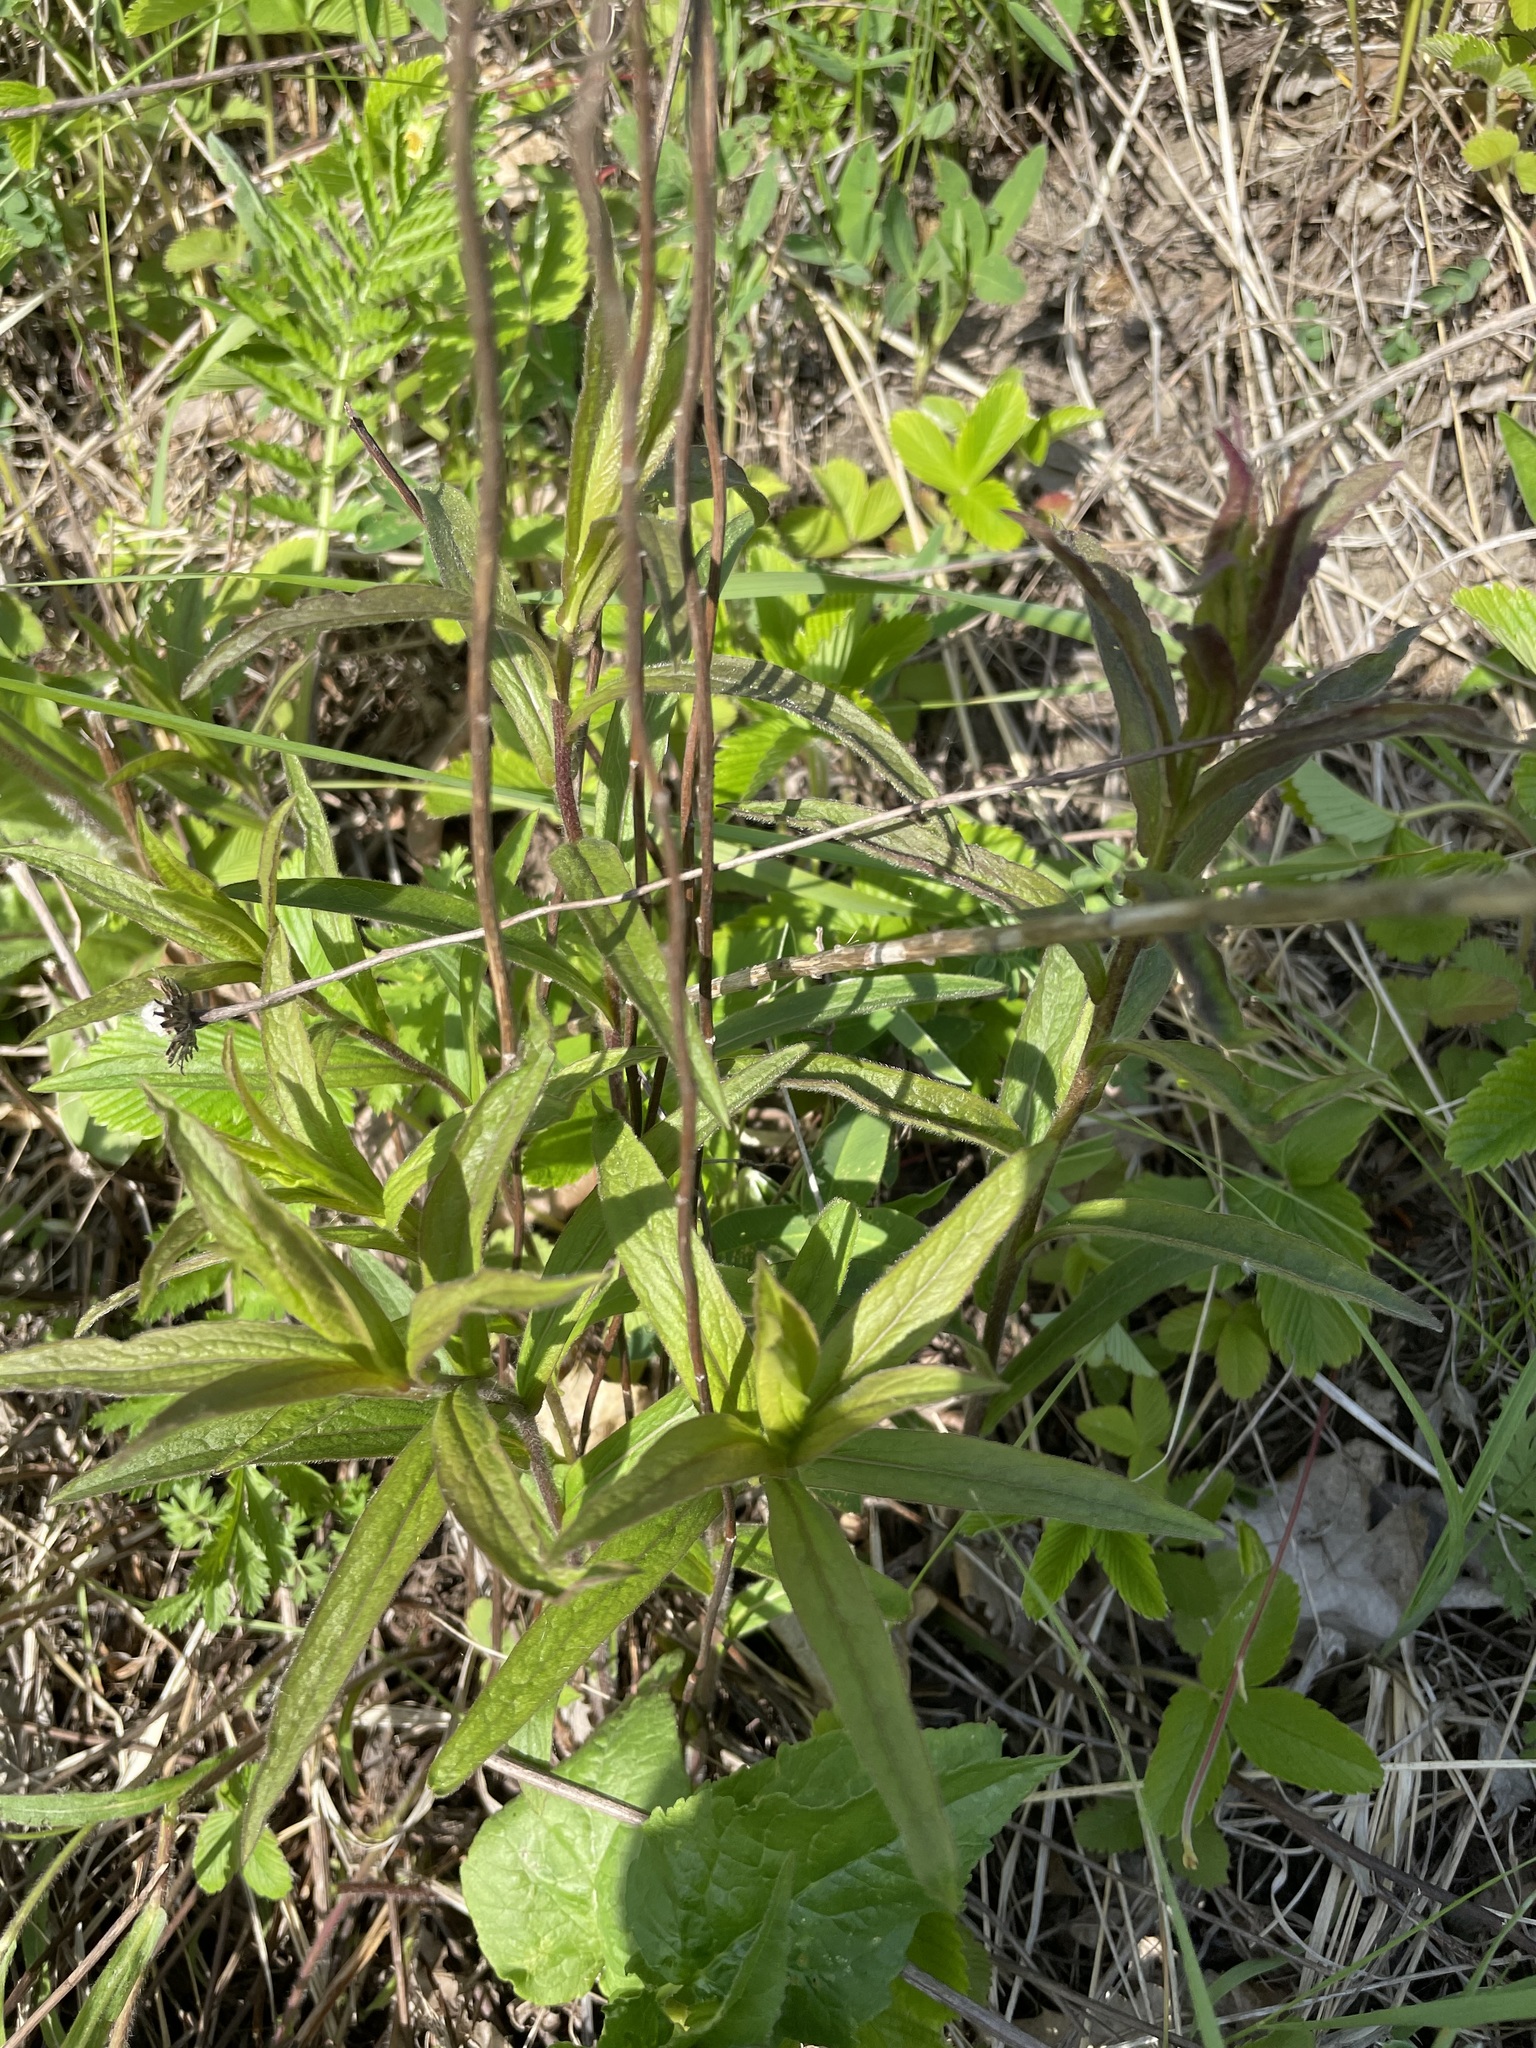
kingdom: Plantae
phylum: Tracheophyta
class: Magnoliopsida
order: Asterales
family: Asteraceae
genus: Pentanema
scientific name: Pentanema hirtum
